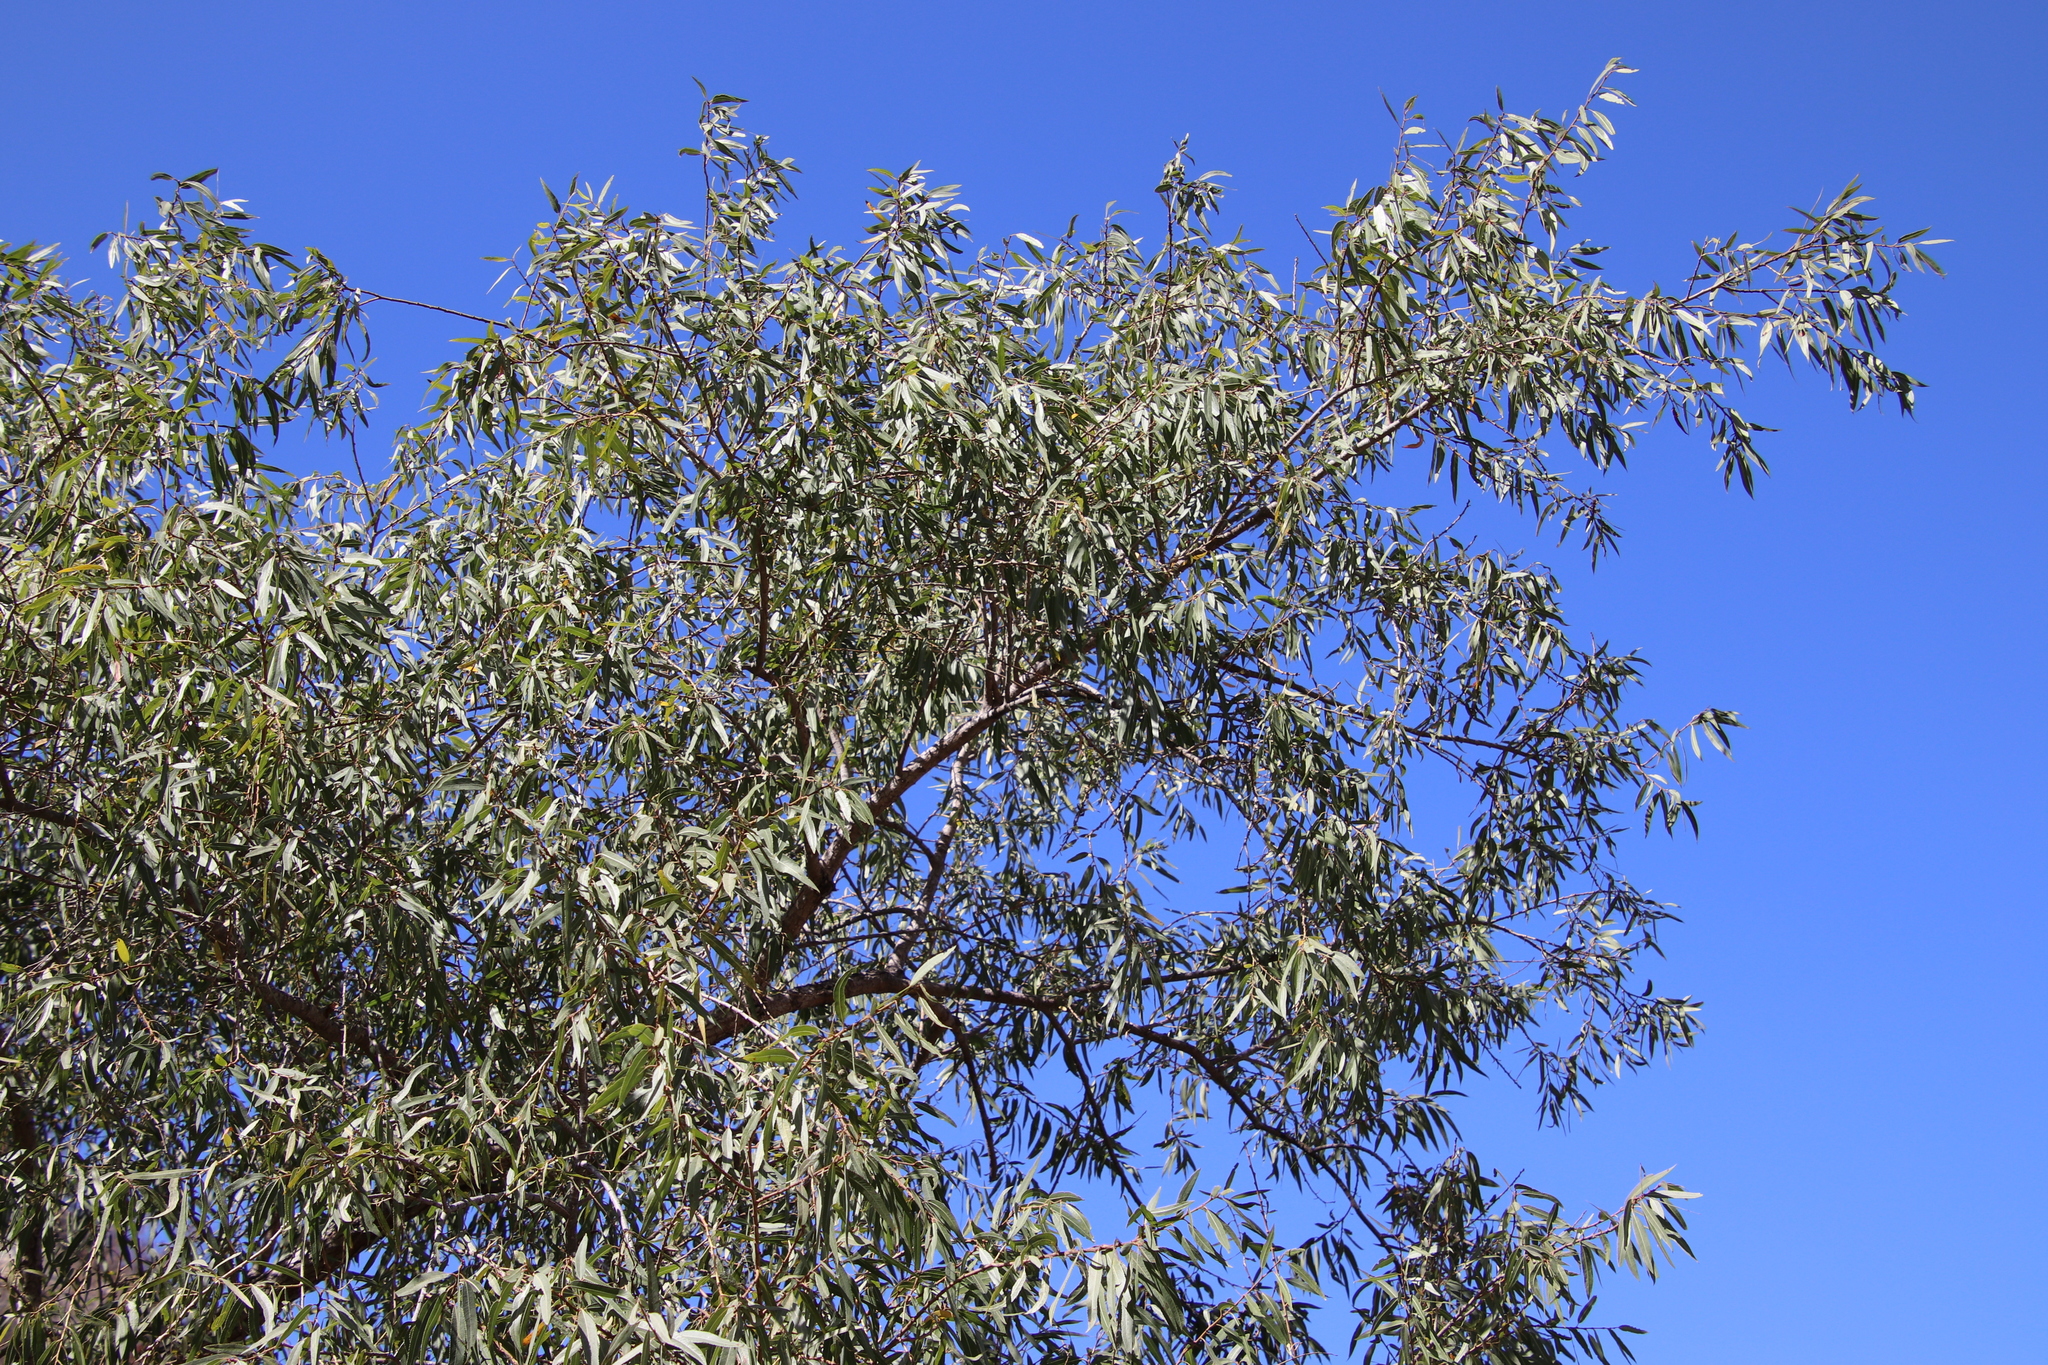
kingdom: Plantae
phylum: Tracheophyta
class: Magnoliopsida
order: Malpighiales
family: Salicaceae
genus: Salix
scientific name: Salix gooddingii
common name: Goodding's willow
